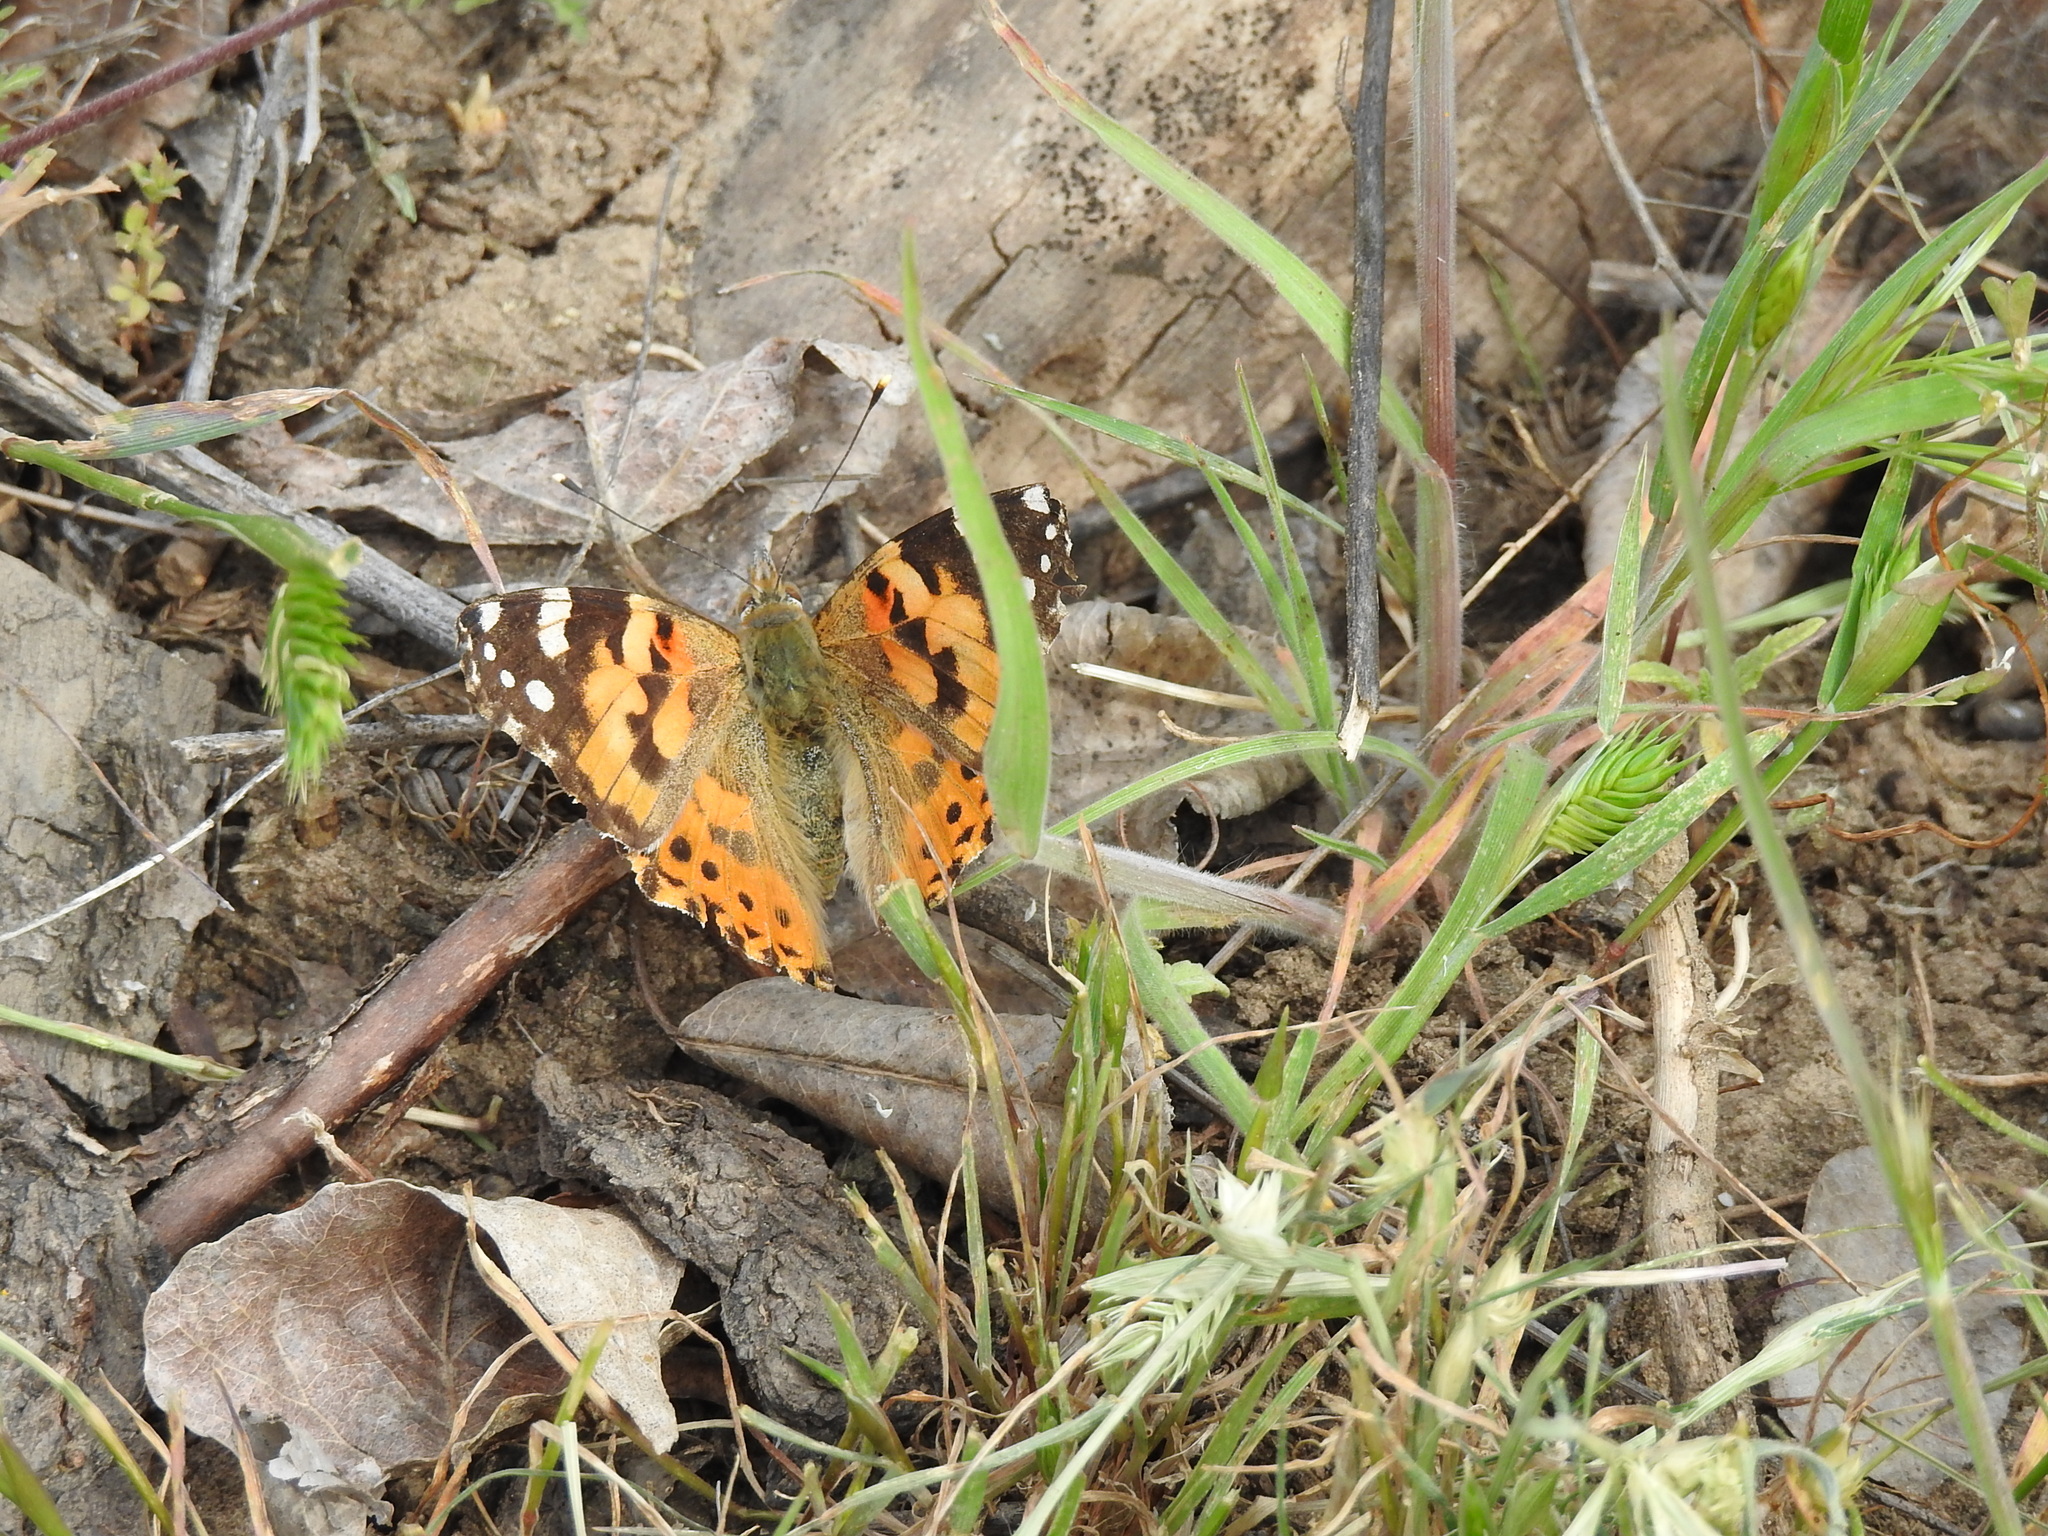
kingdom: Animalia
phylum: Arthropoda
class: Insecta
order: Lepidoptera
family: Nymphalidae
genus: Vanessa
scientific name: Vanessa cardui
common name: Painted lady
